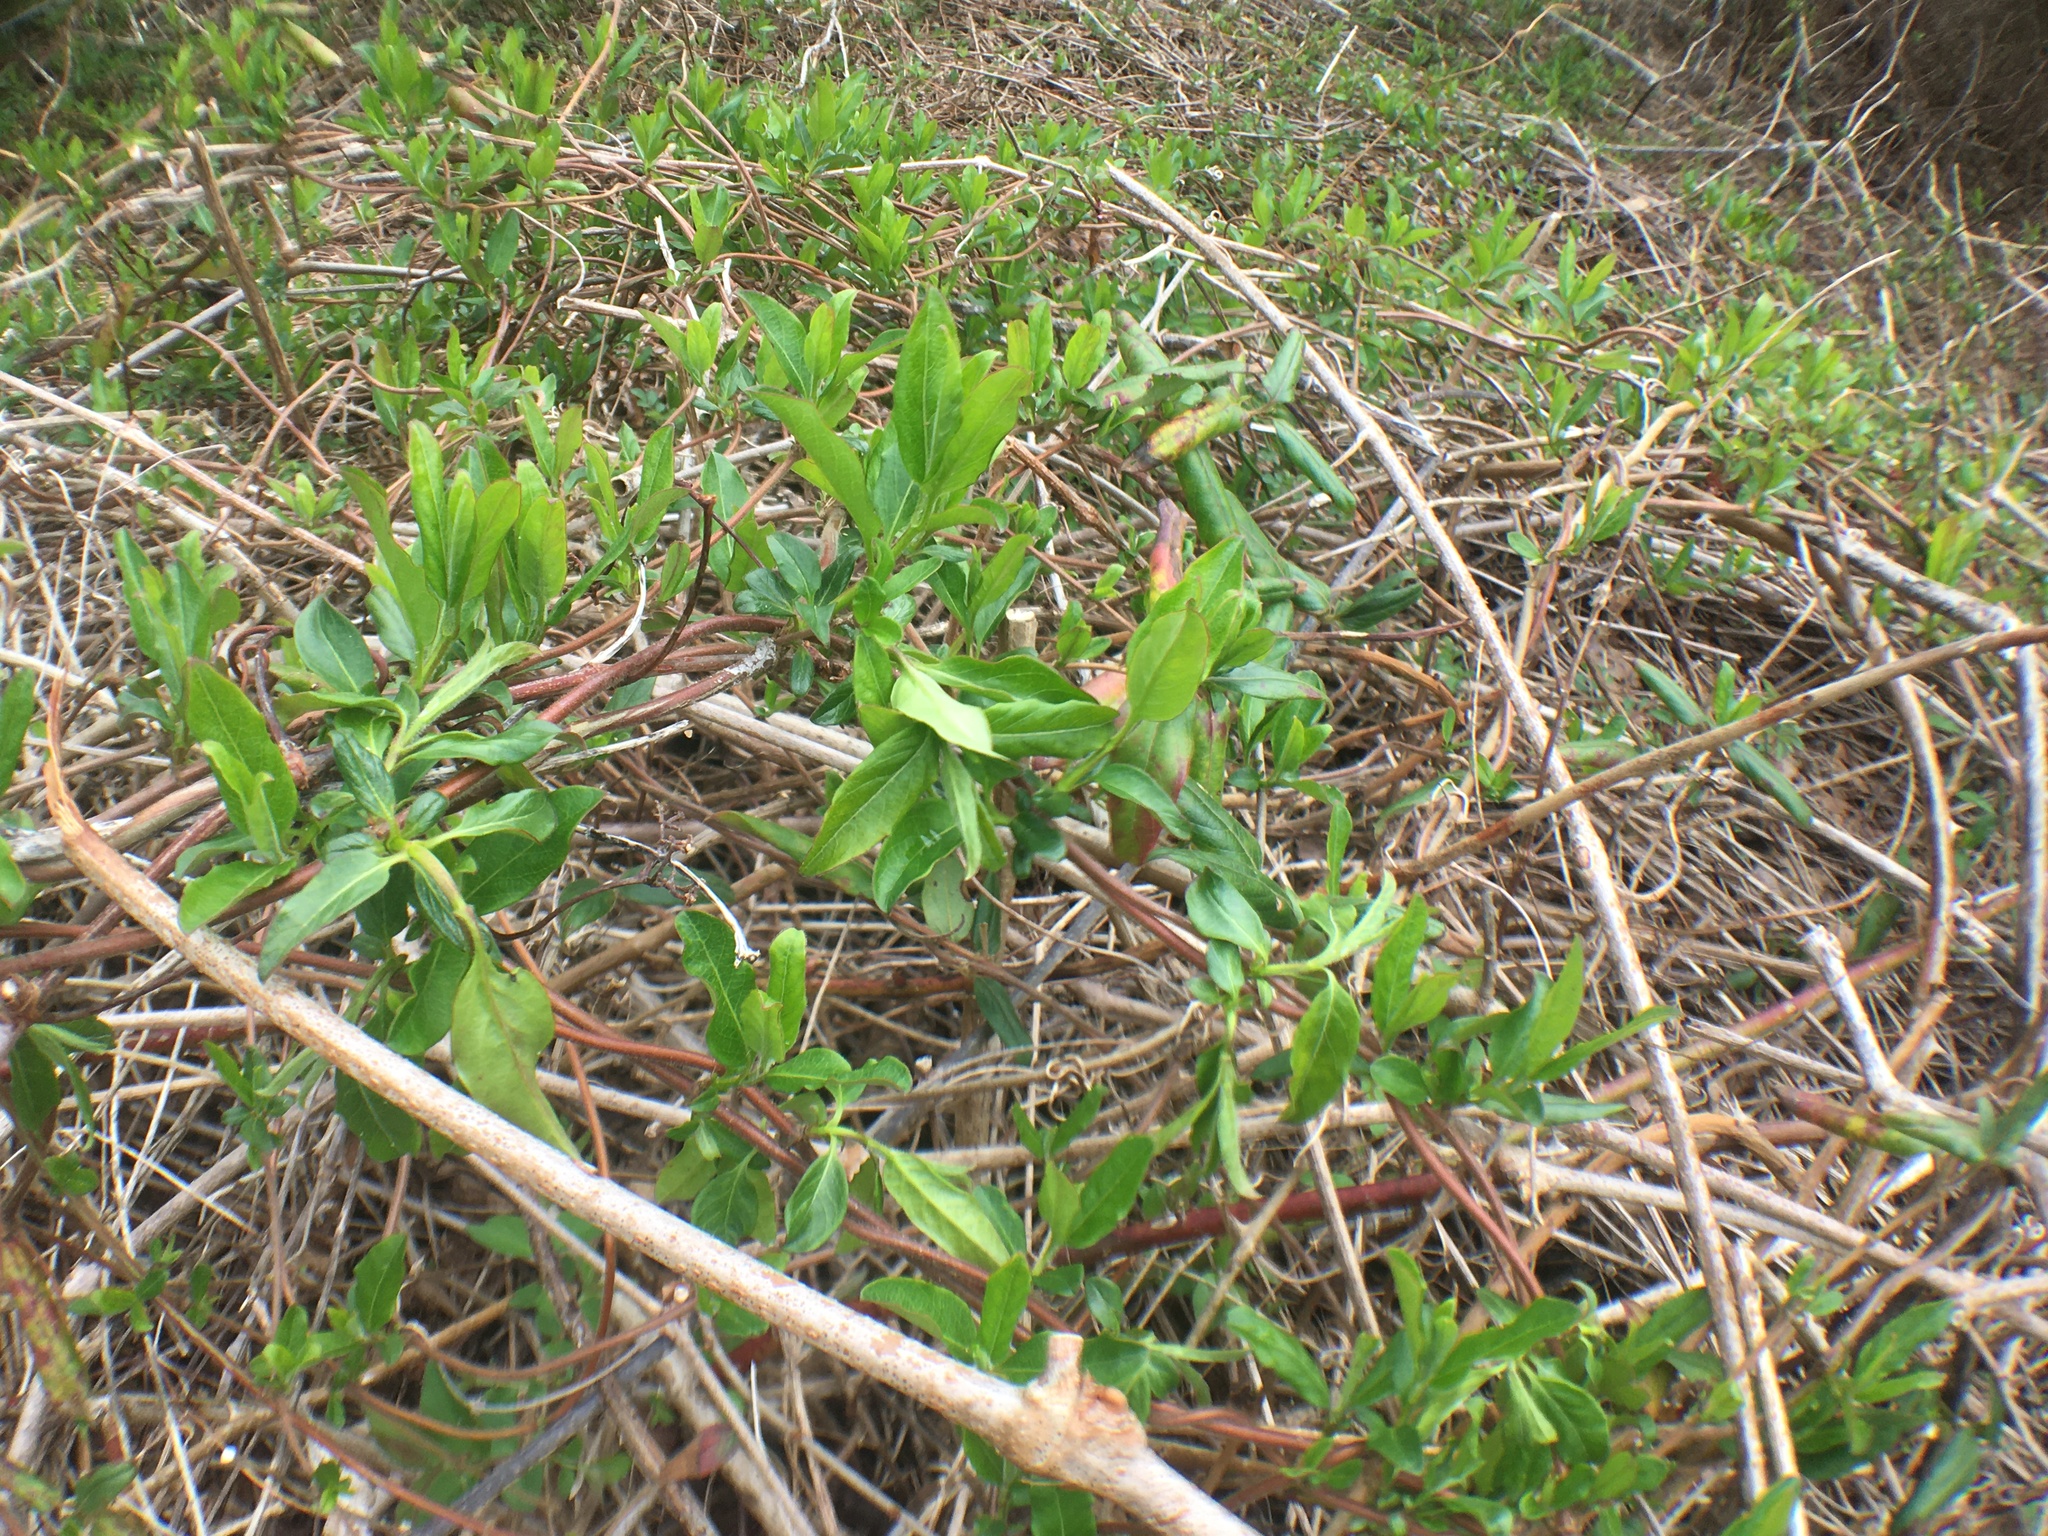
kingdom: Plantae
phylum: Tracheophyta
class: Magnoliopsida
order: Dipsacales
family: Caprifoliaceae
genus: Lonicera
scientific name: Lonicera japonica
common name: Japanese honeysuckle
